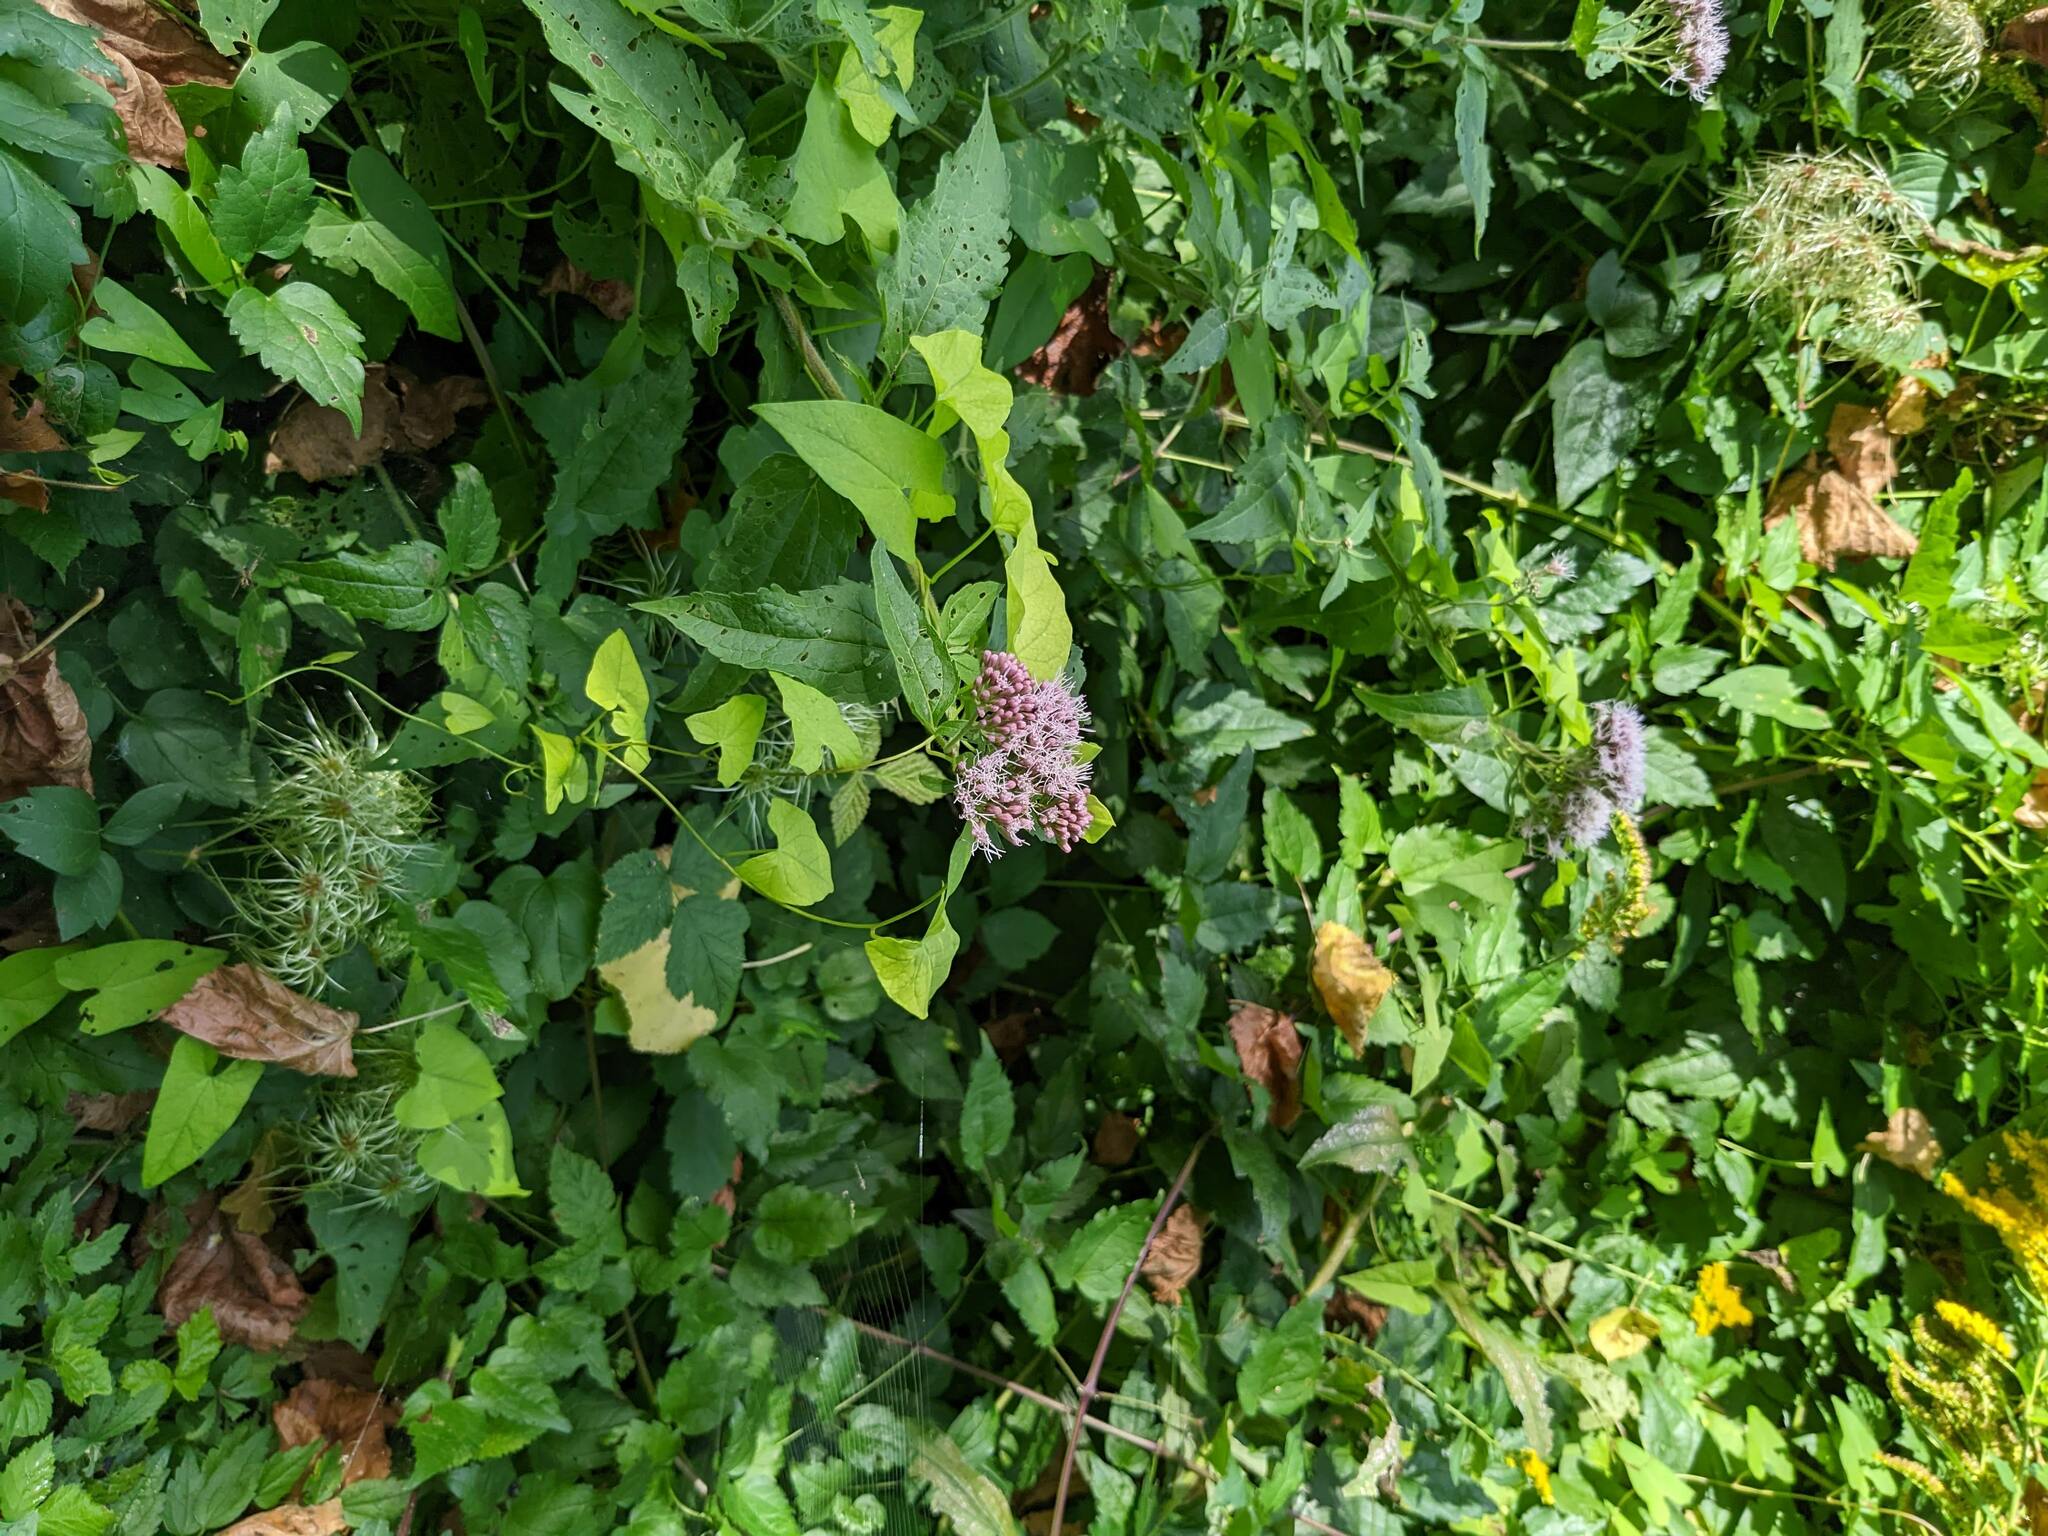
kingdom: Plantae
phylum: Tracheophyta
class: Magnoliopsida
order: Asterales
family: Asteraceae
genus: Eupatorium
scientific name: Eupatorium cannabinum
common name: Hemp-agrimony
